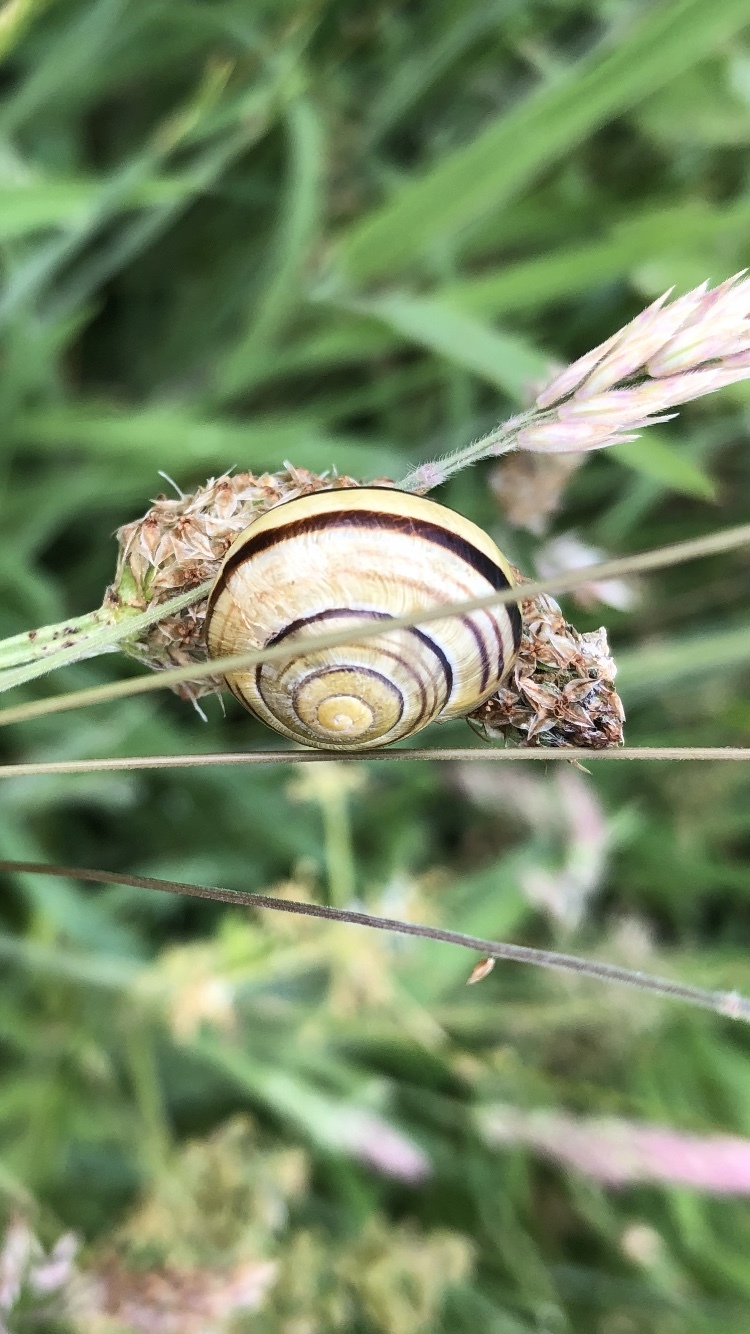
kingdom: Animalia
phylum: Mollusca
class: Gastropoda
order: Stylommatophora
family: Helicidae
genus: Cepaea
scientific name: Cepaea
